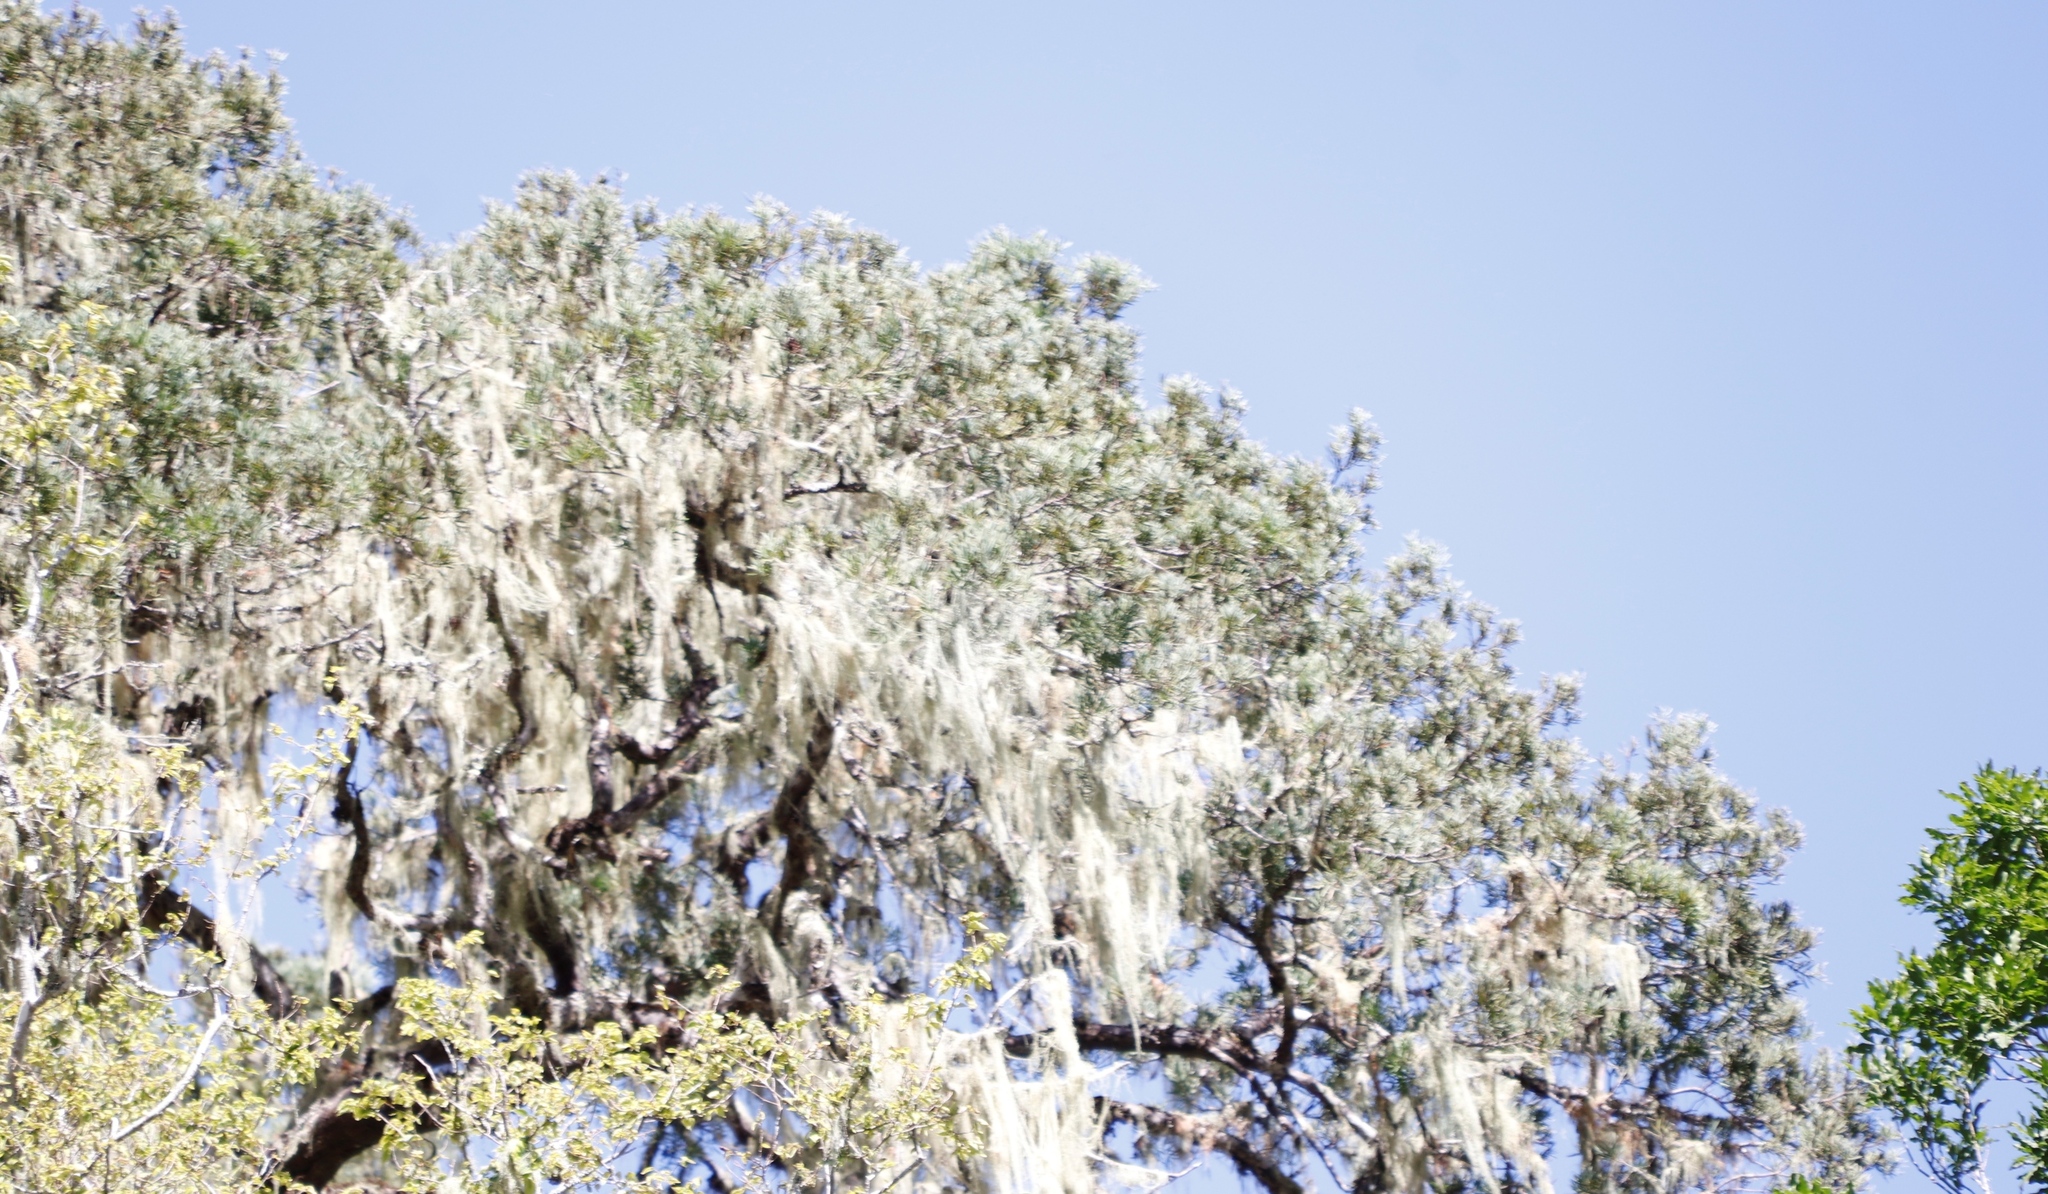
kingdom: Plantae
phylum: Tracheophyta
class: Pinopsida
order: Pinales
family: Podocarpaceae
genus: Afrocarpus
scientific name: Afrocarpus falcatus
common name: Bastard yellowwood
